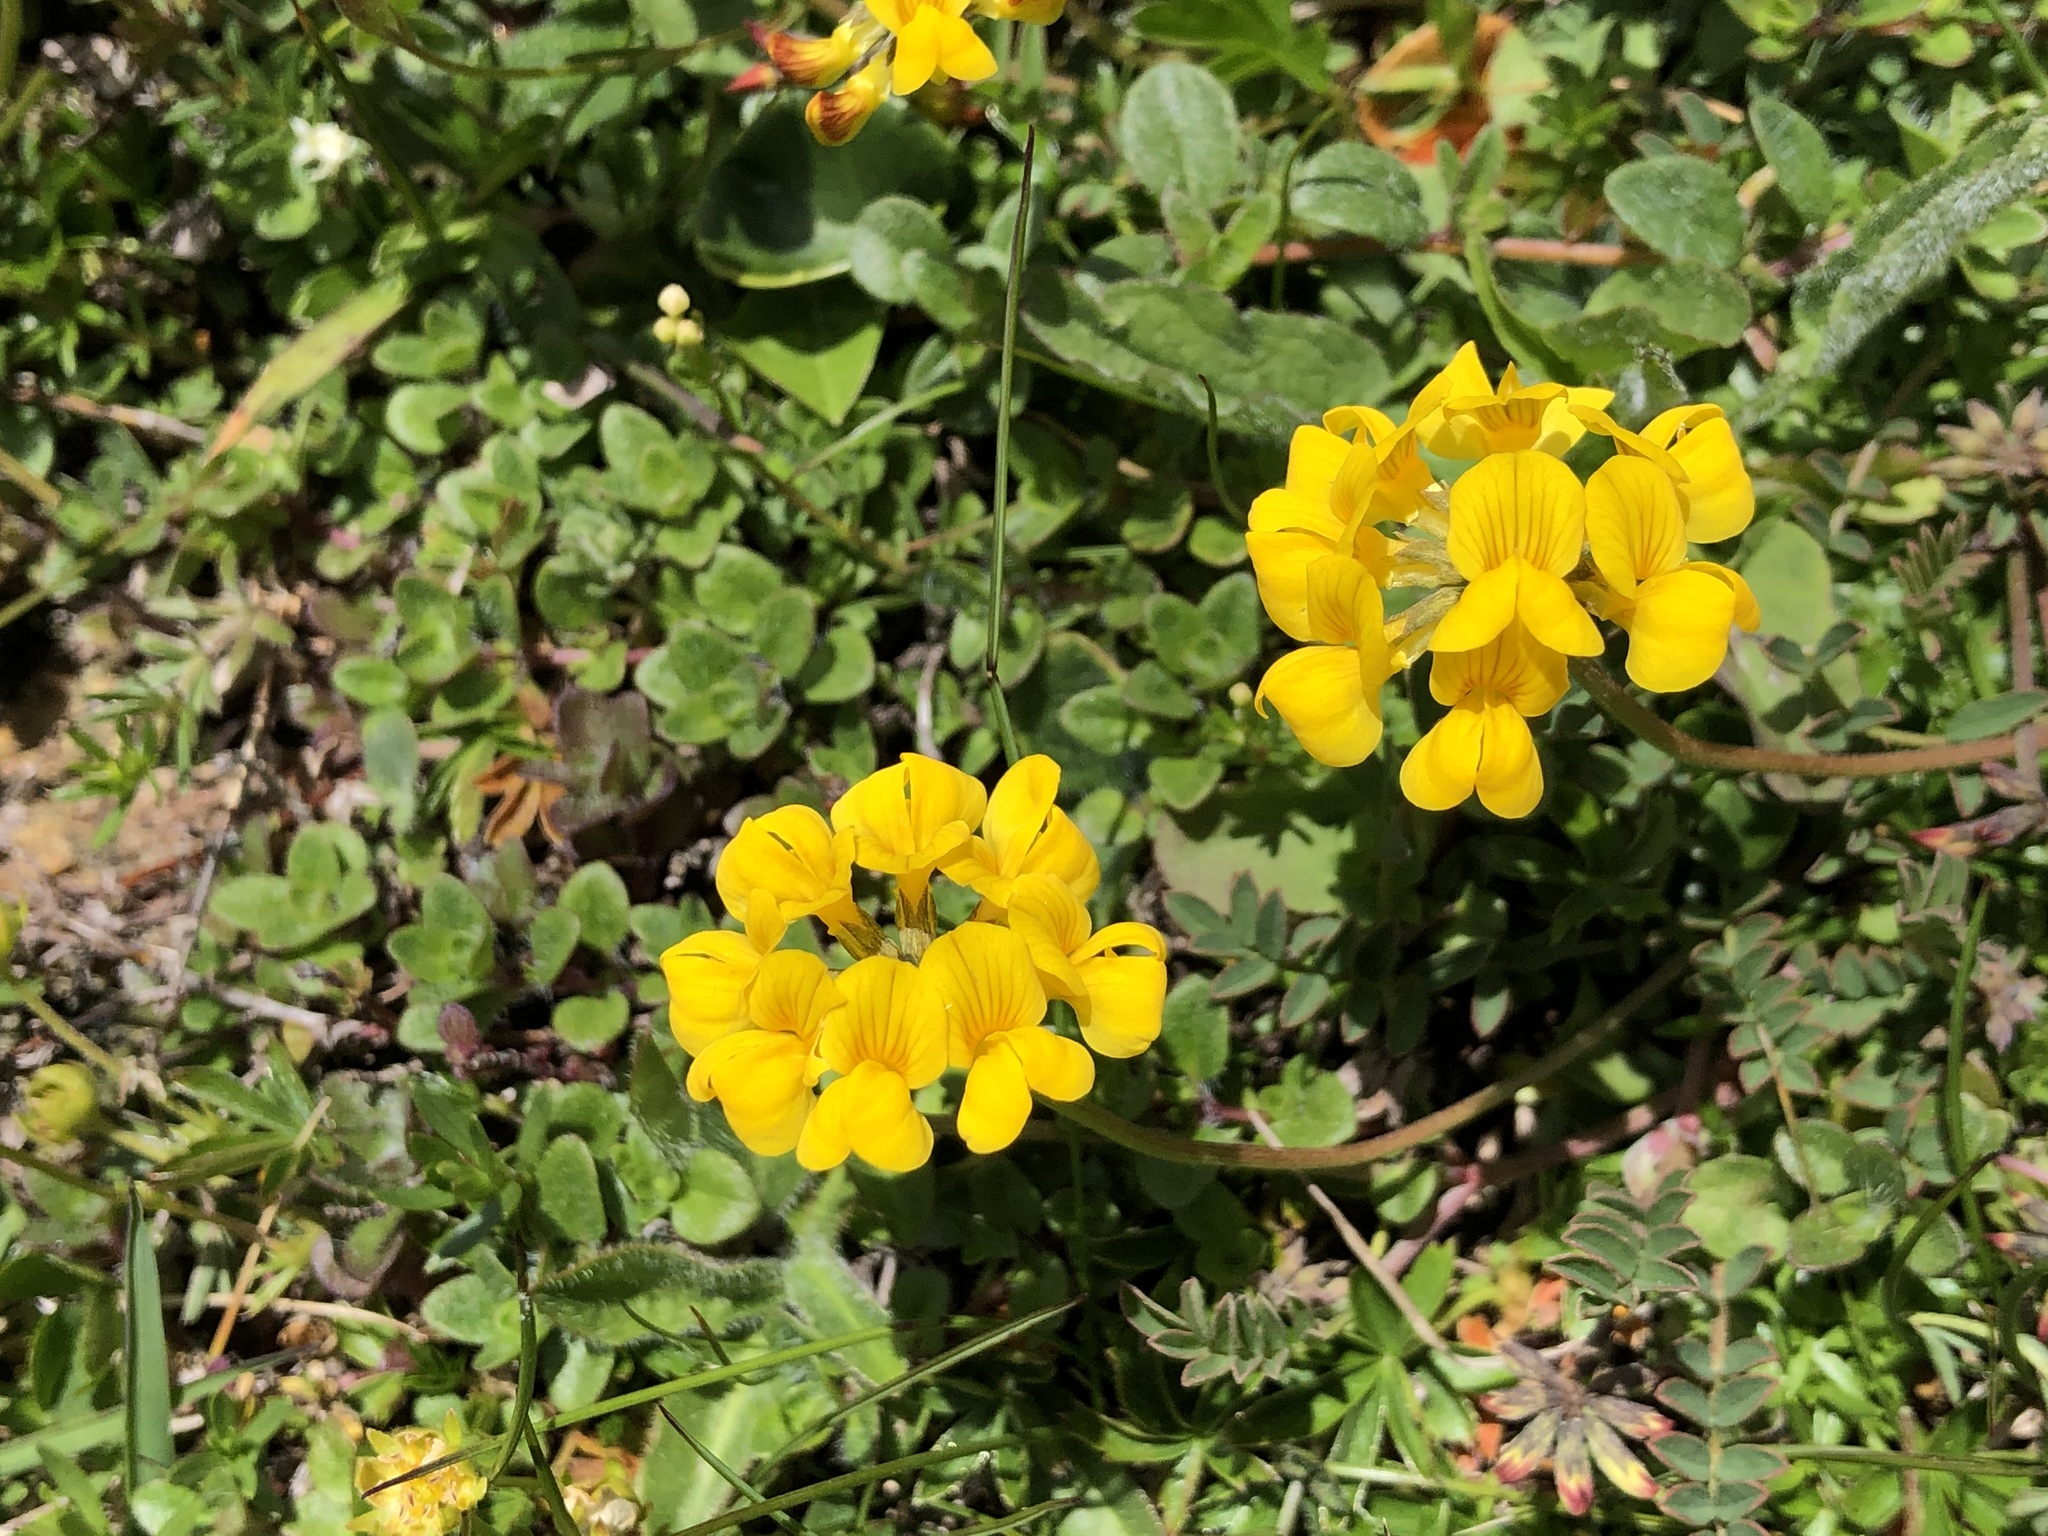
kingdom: Plantae
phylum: Tracheophyta
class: Magnoliopsida
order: Fabales
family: Fabaceae
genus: Hippocrepis
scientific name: Hippocrepis comosa
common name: Horseshoe vetch
